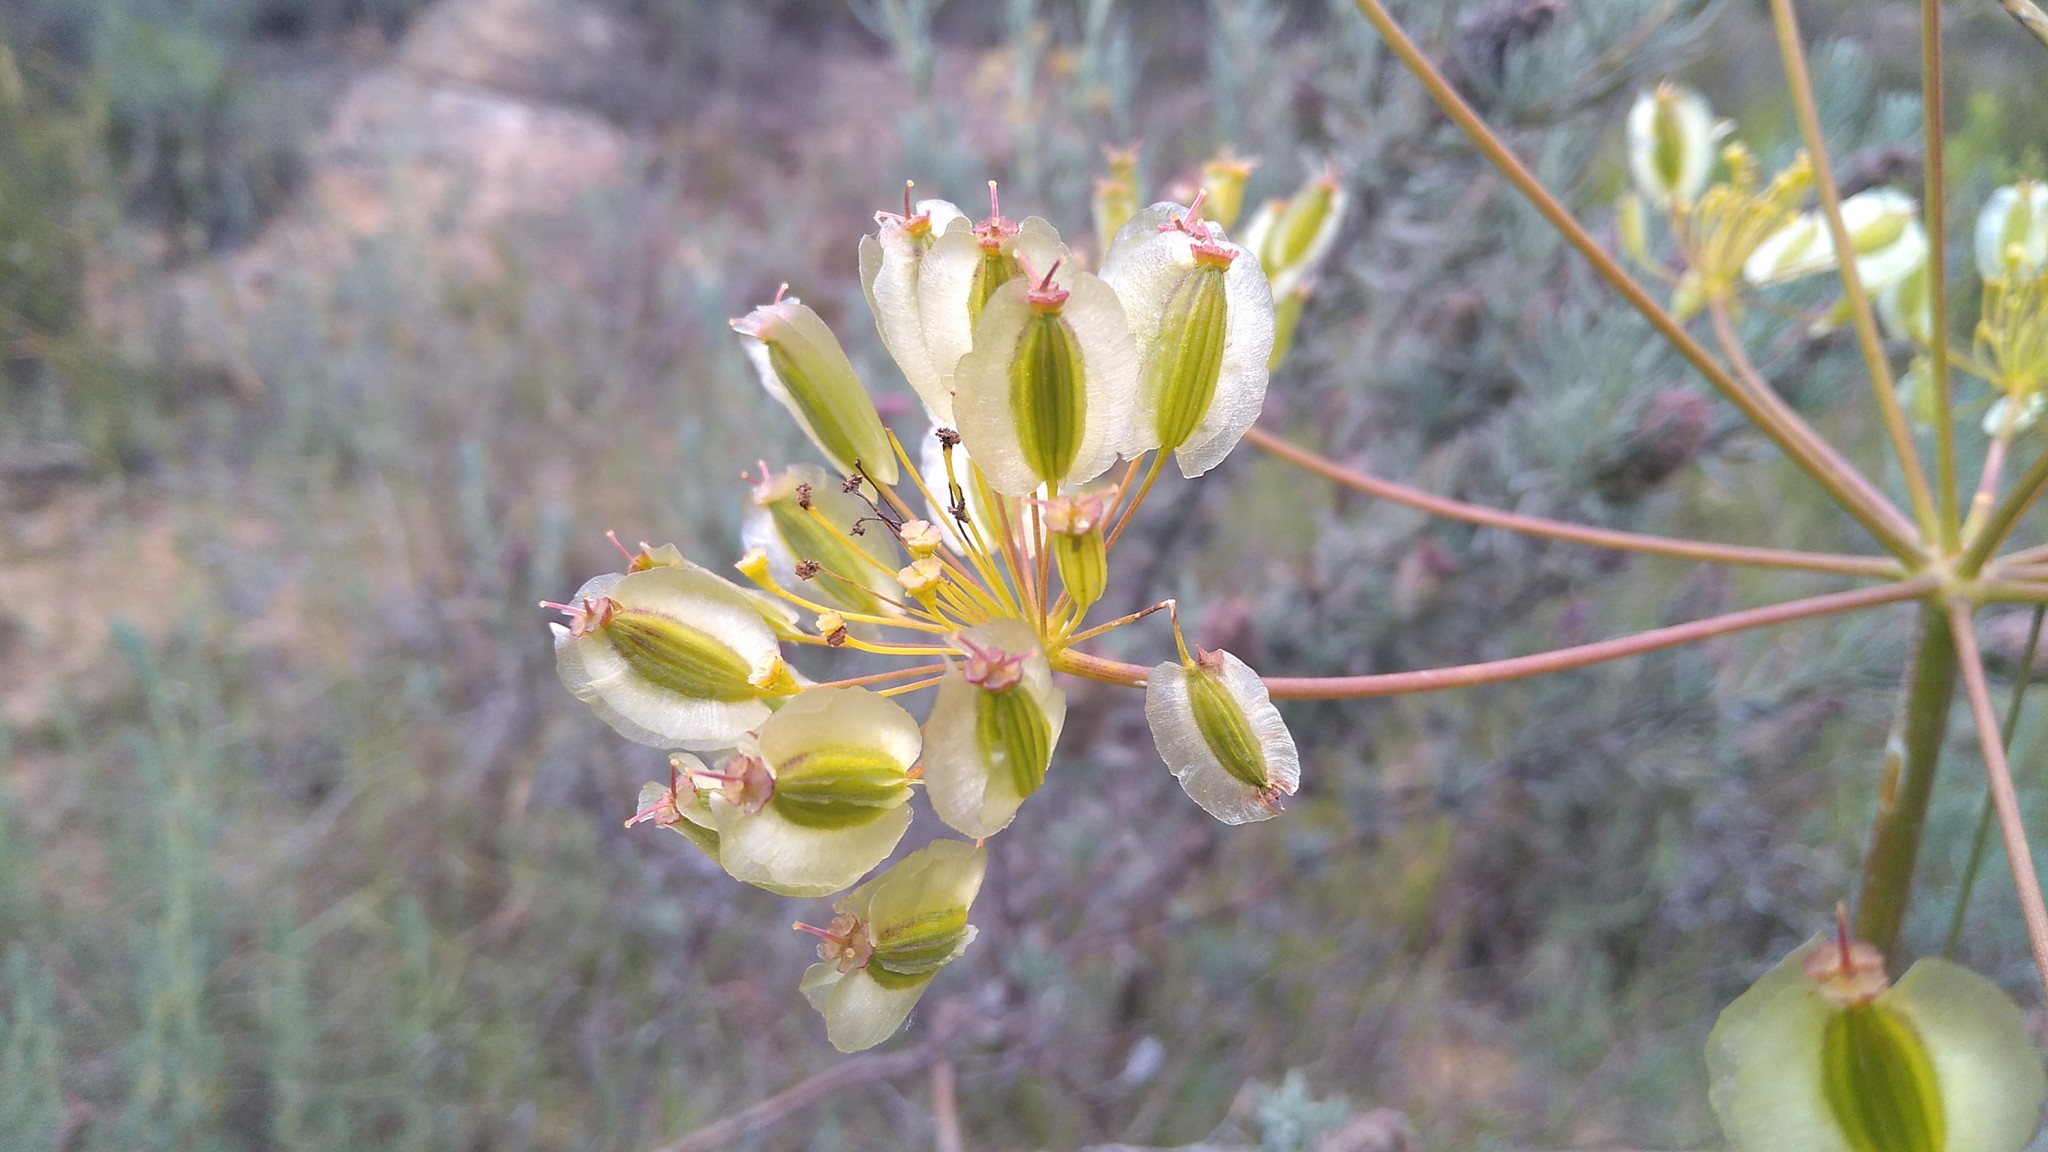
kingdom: Plantae
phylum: Tracheophyta
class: Magnoliopsida
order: Apiales
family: Apiaceae
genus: Thapsia
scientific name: Thapsia villosa
